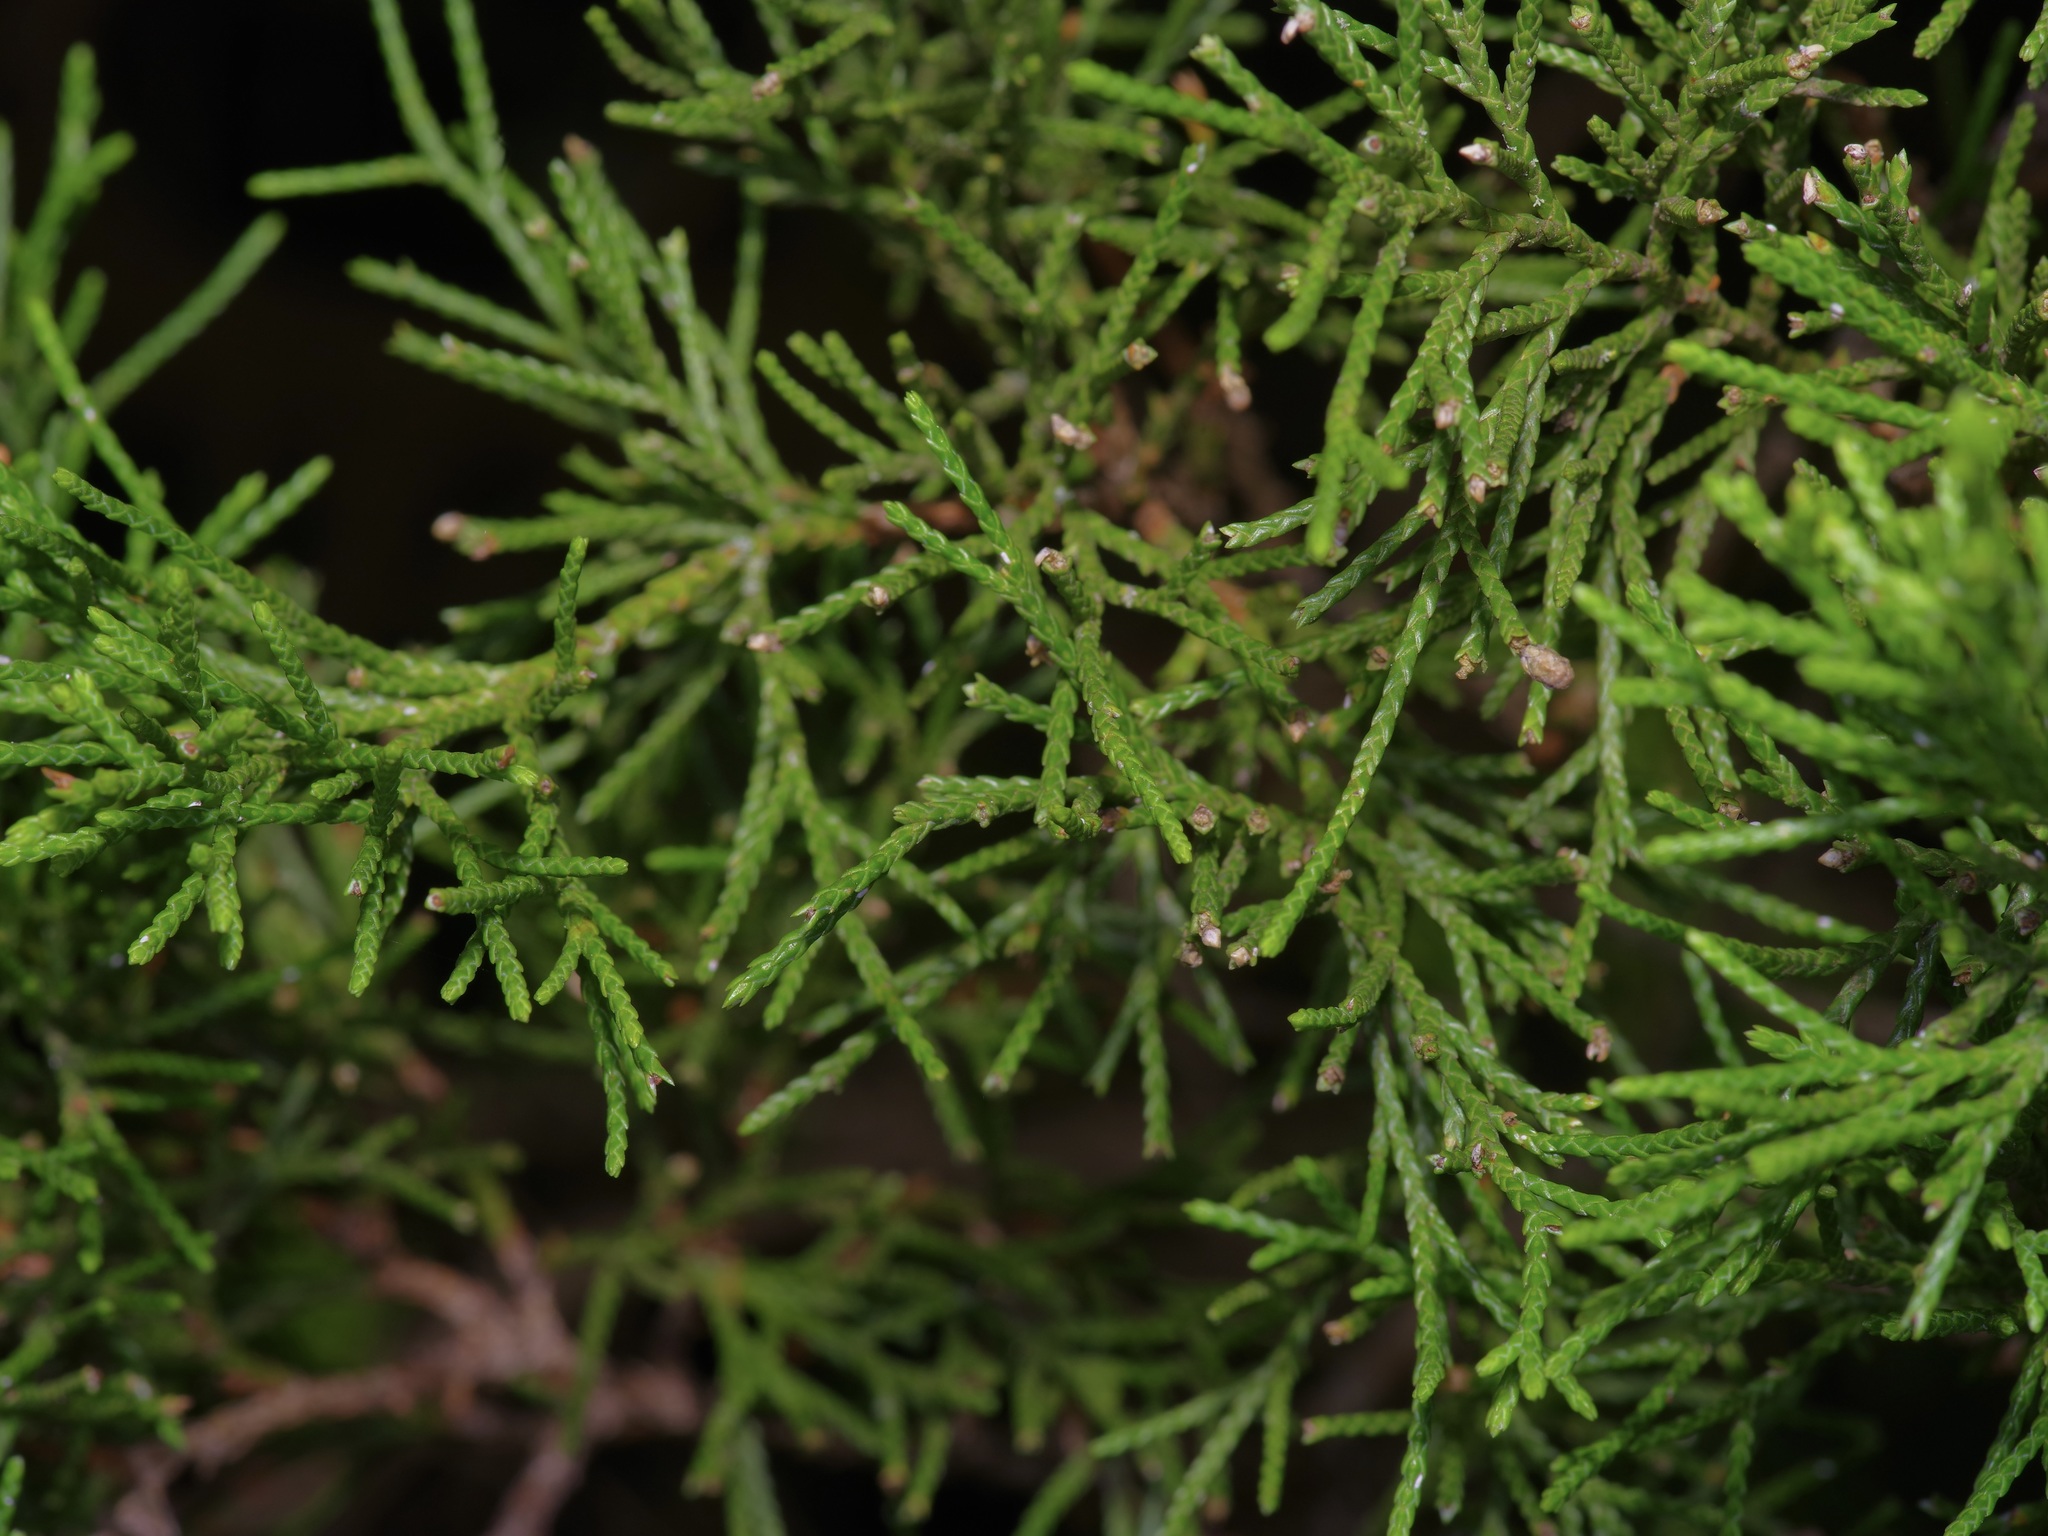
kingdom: Plantae
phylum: Tracheophyta
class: Pinopsida
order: Pinales
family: Cupressaceae
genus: Juniperus
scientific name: Juniperus virginiana
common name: Red juniper
